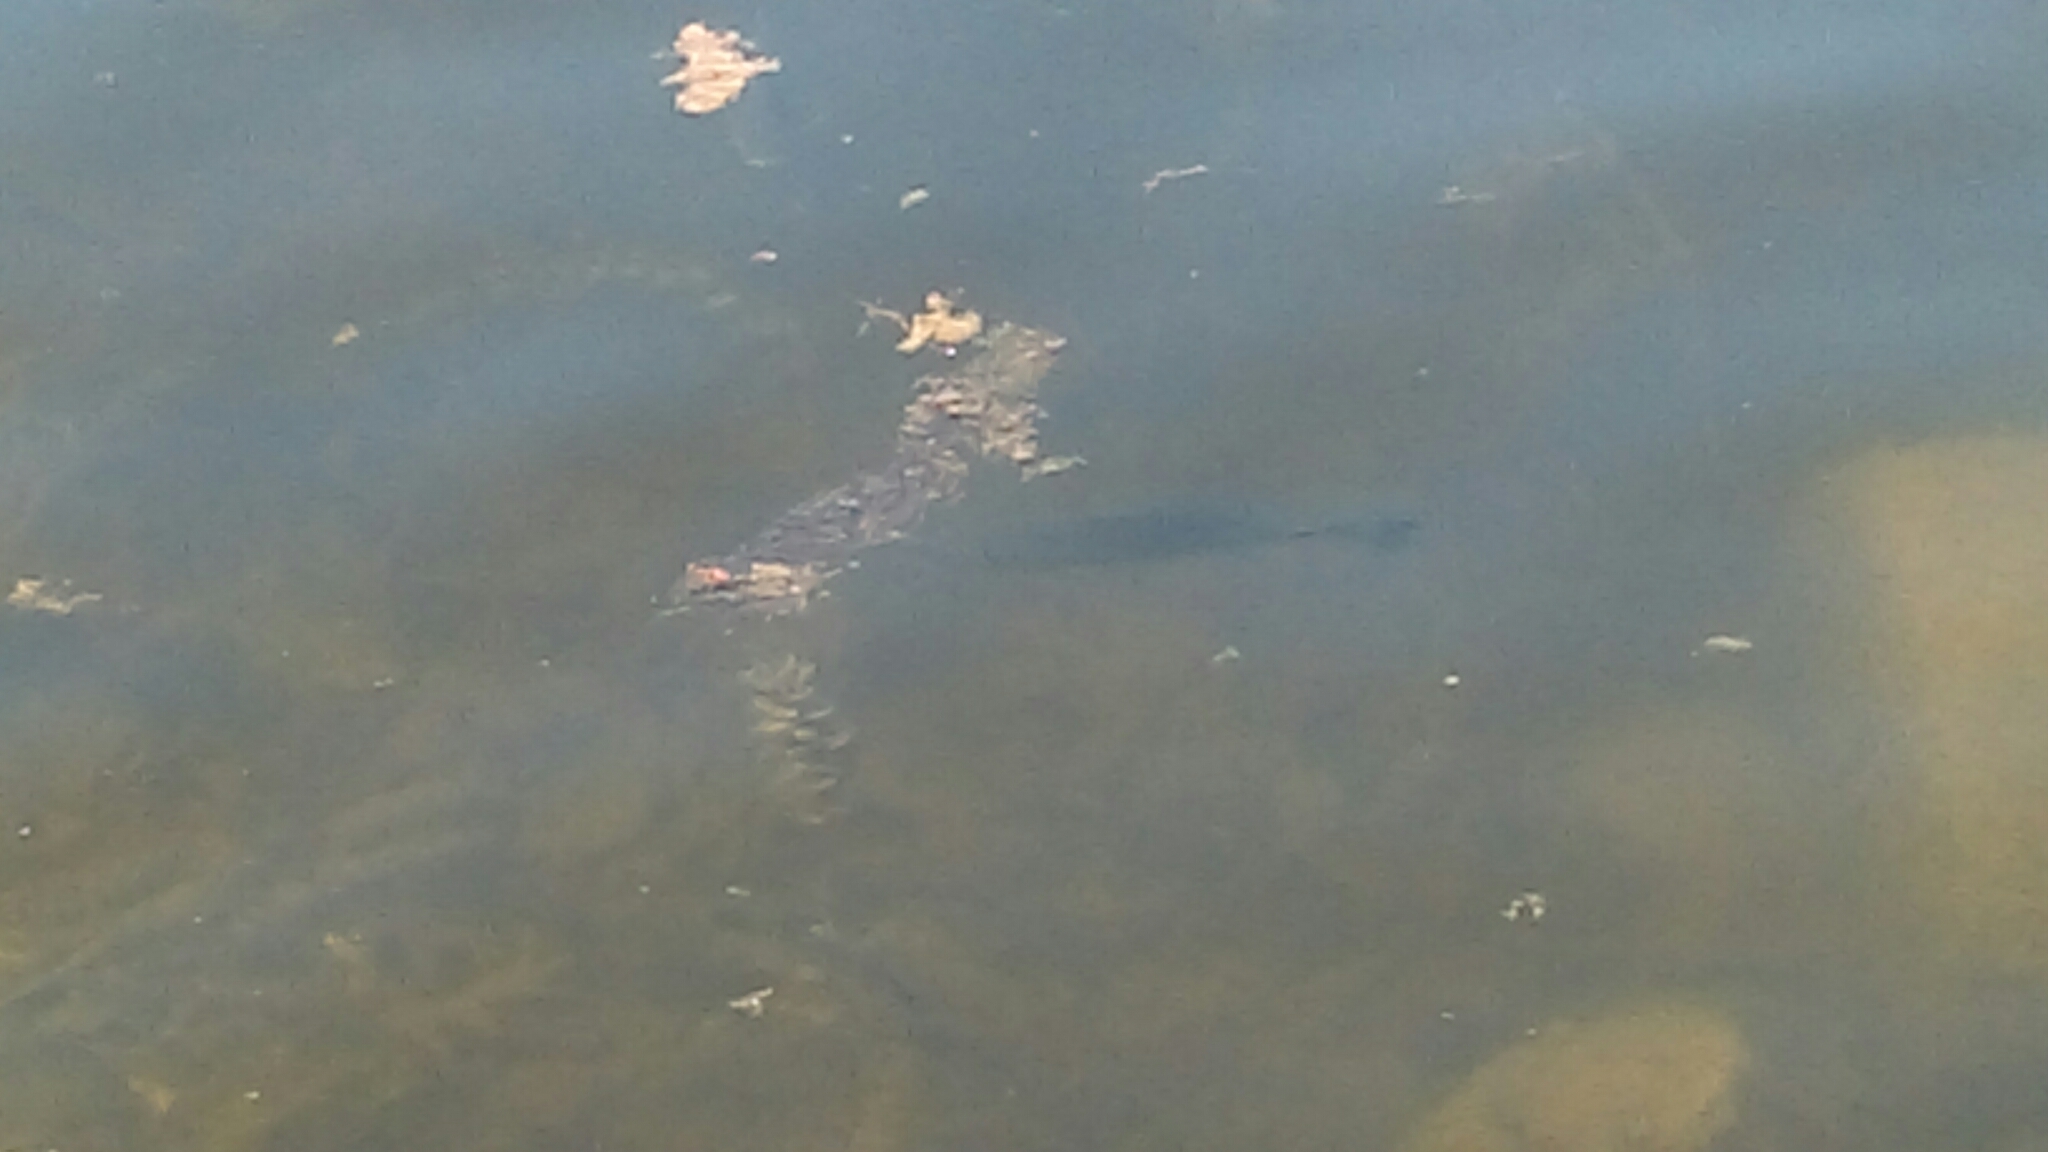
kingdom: Animalia
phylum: Chordata
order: Perciformes
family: Centrarchidae
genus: Micropterus
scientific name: Micropterus
